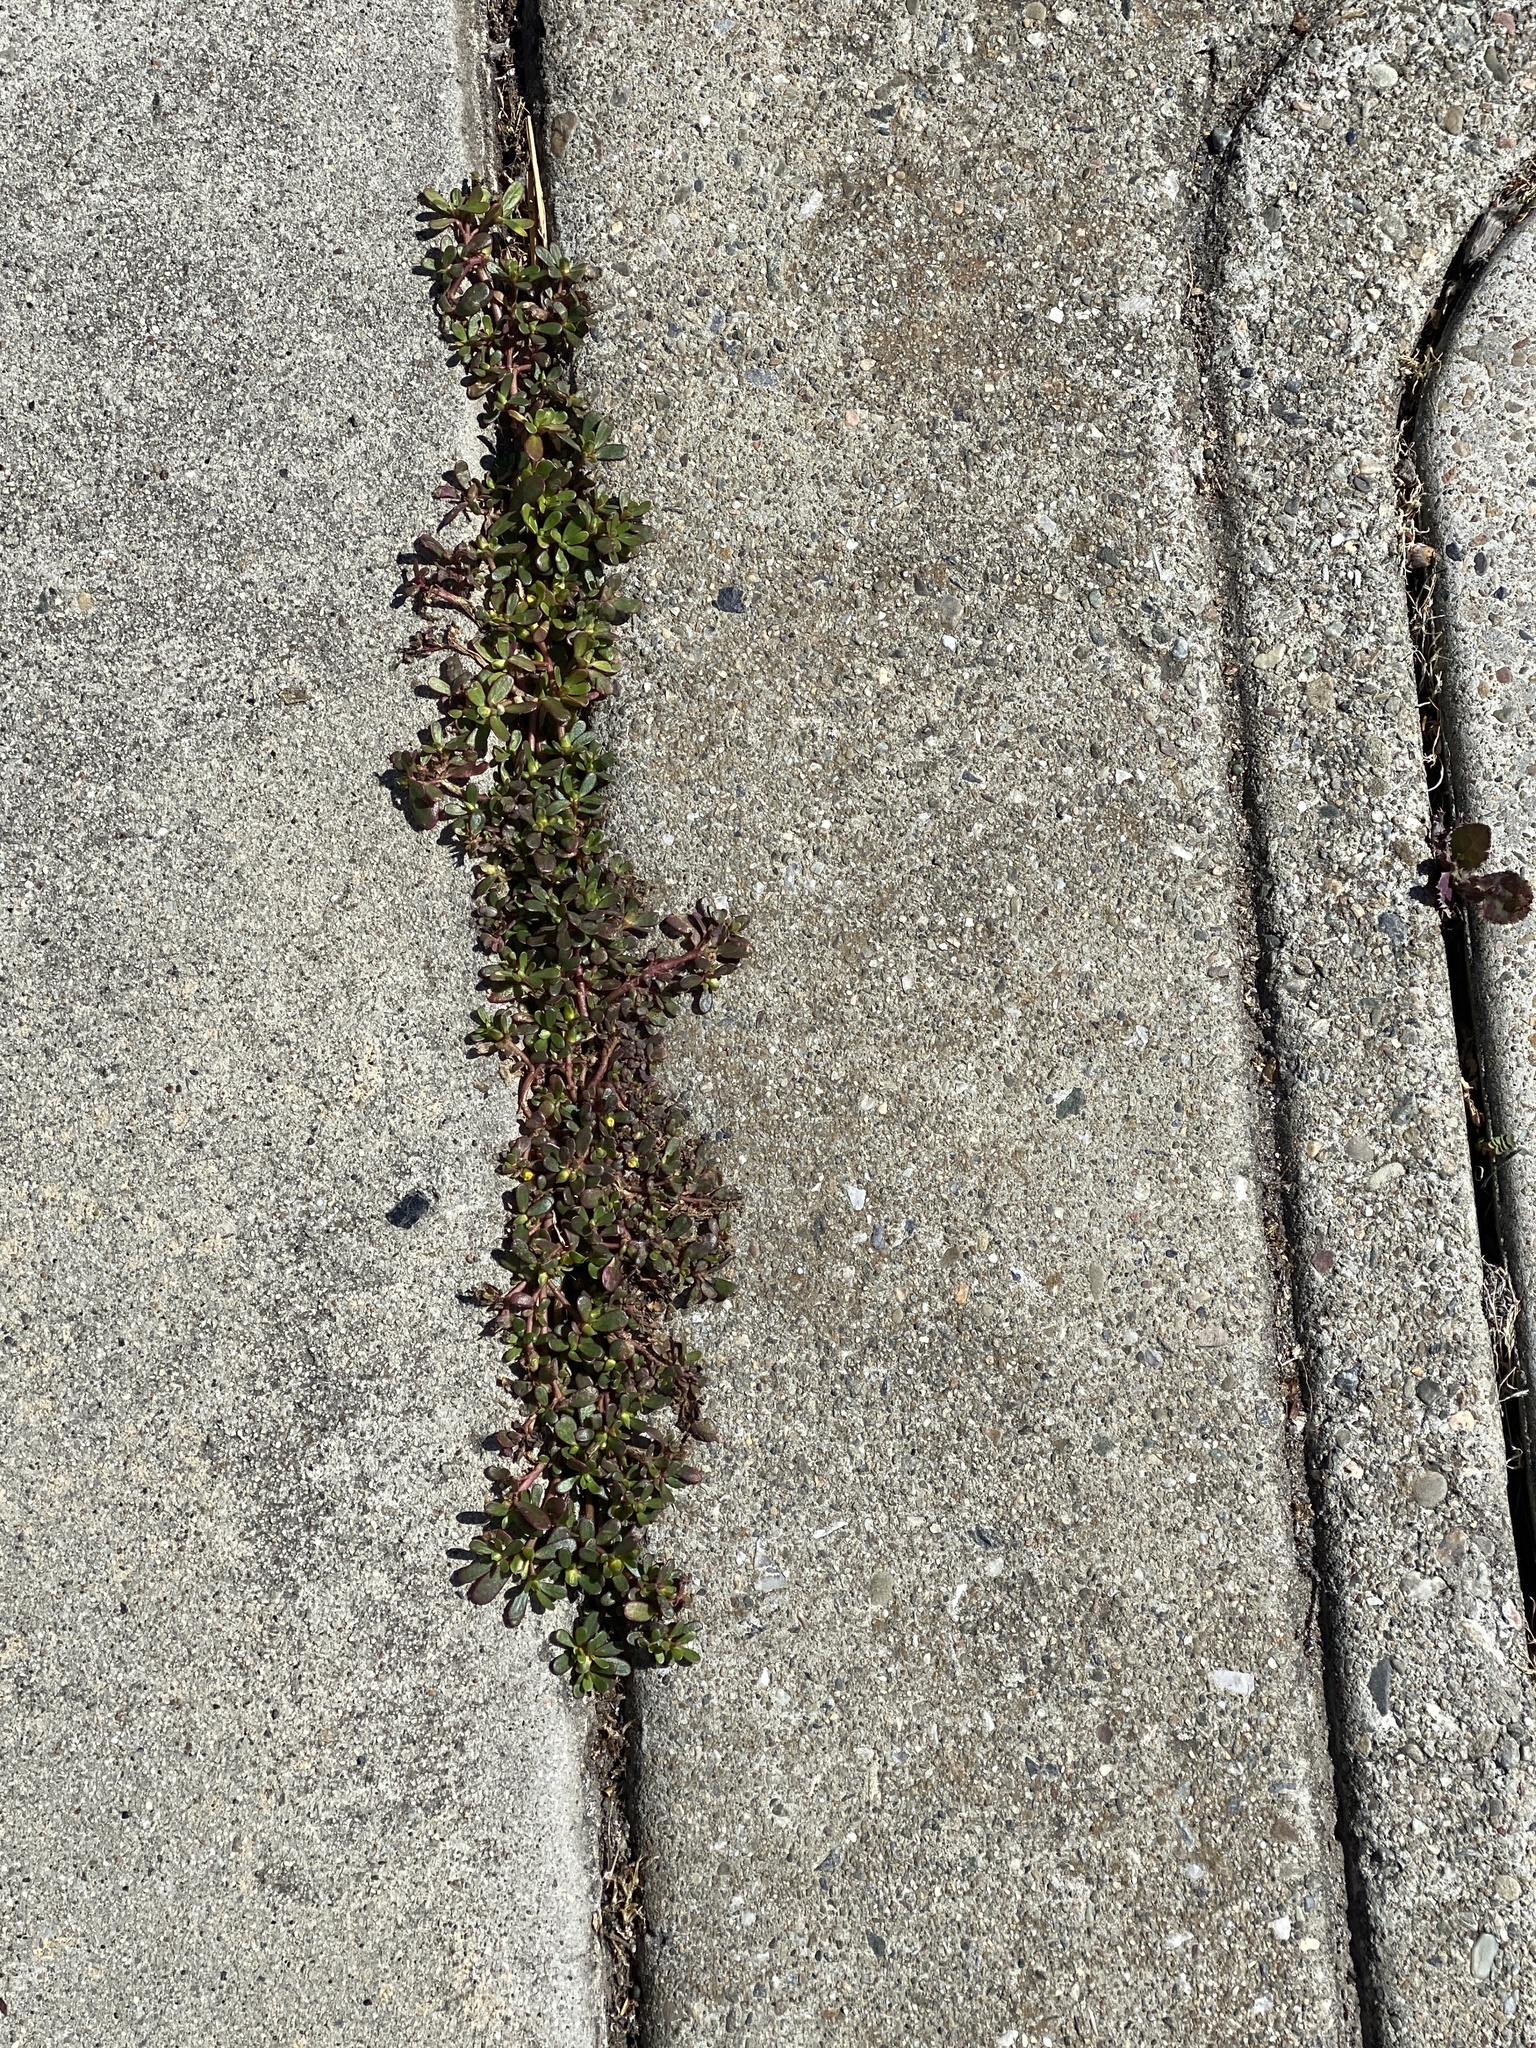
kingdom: Plantae
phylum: Tracheophyta
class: Magnoliopsida
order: Caryophyllales
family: Portulacaceae
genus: Portulaca
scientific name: Portulaca oleracea
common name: Common purslane
